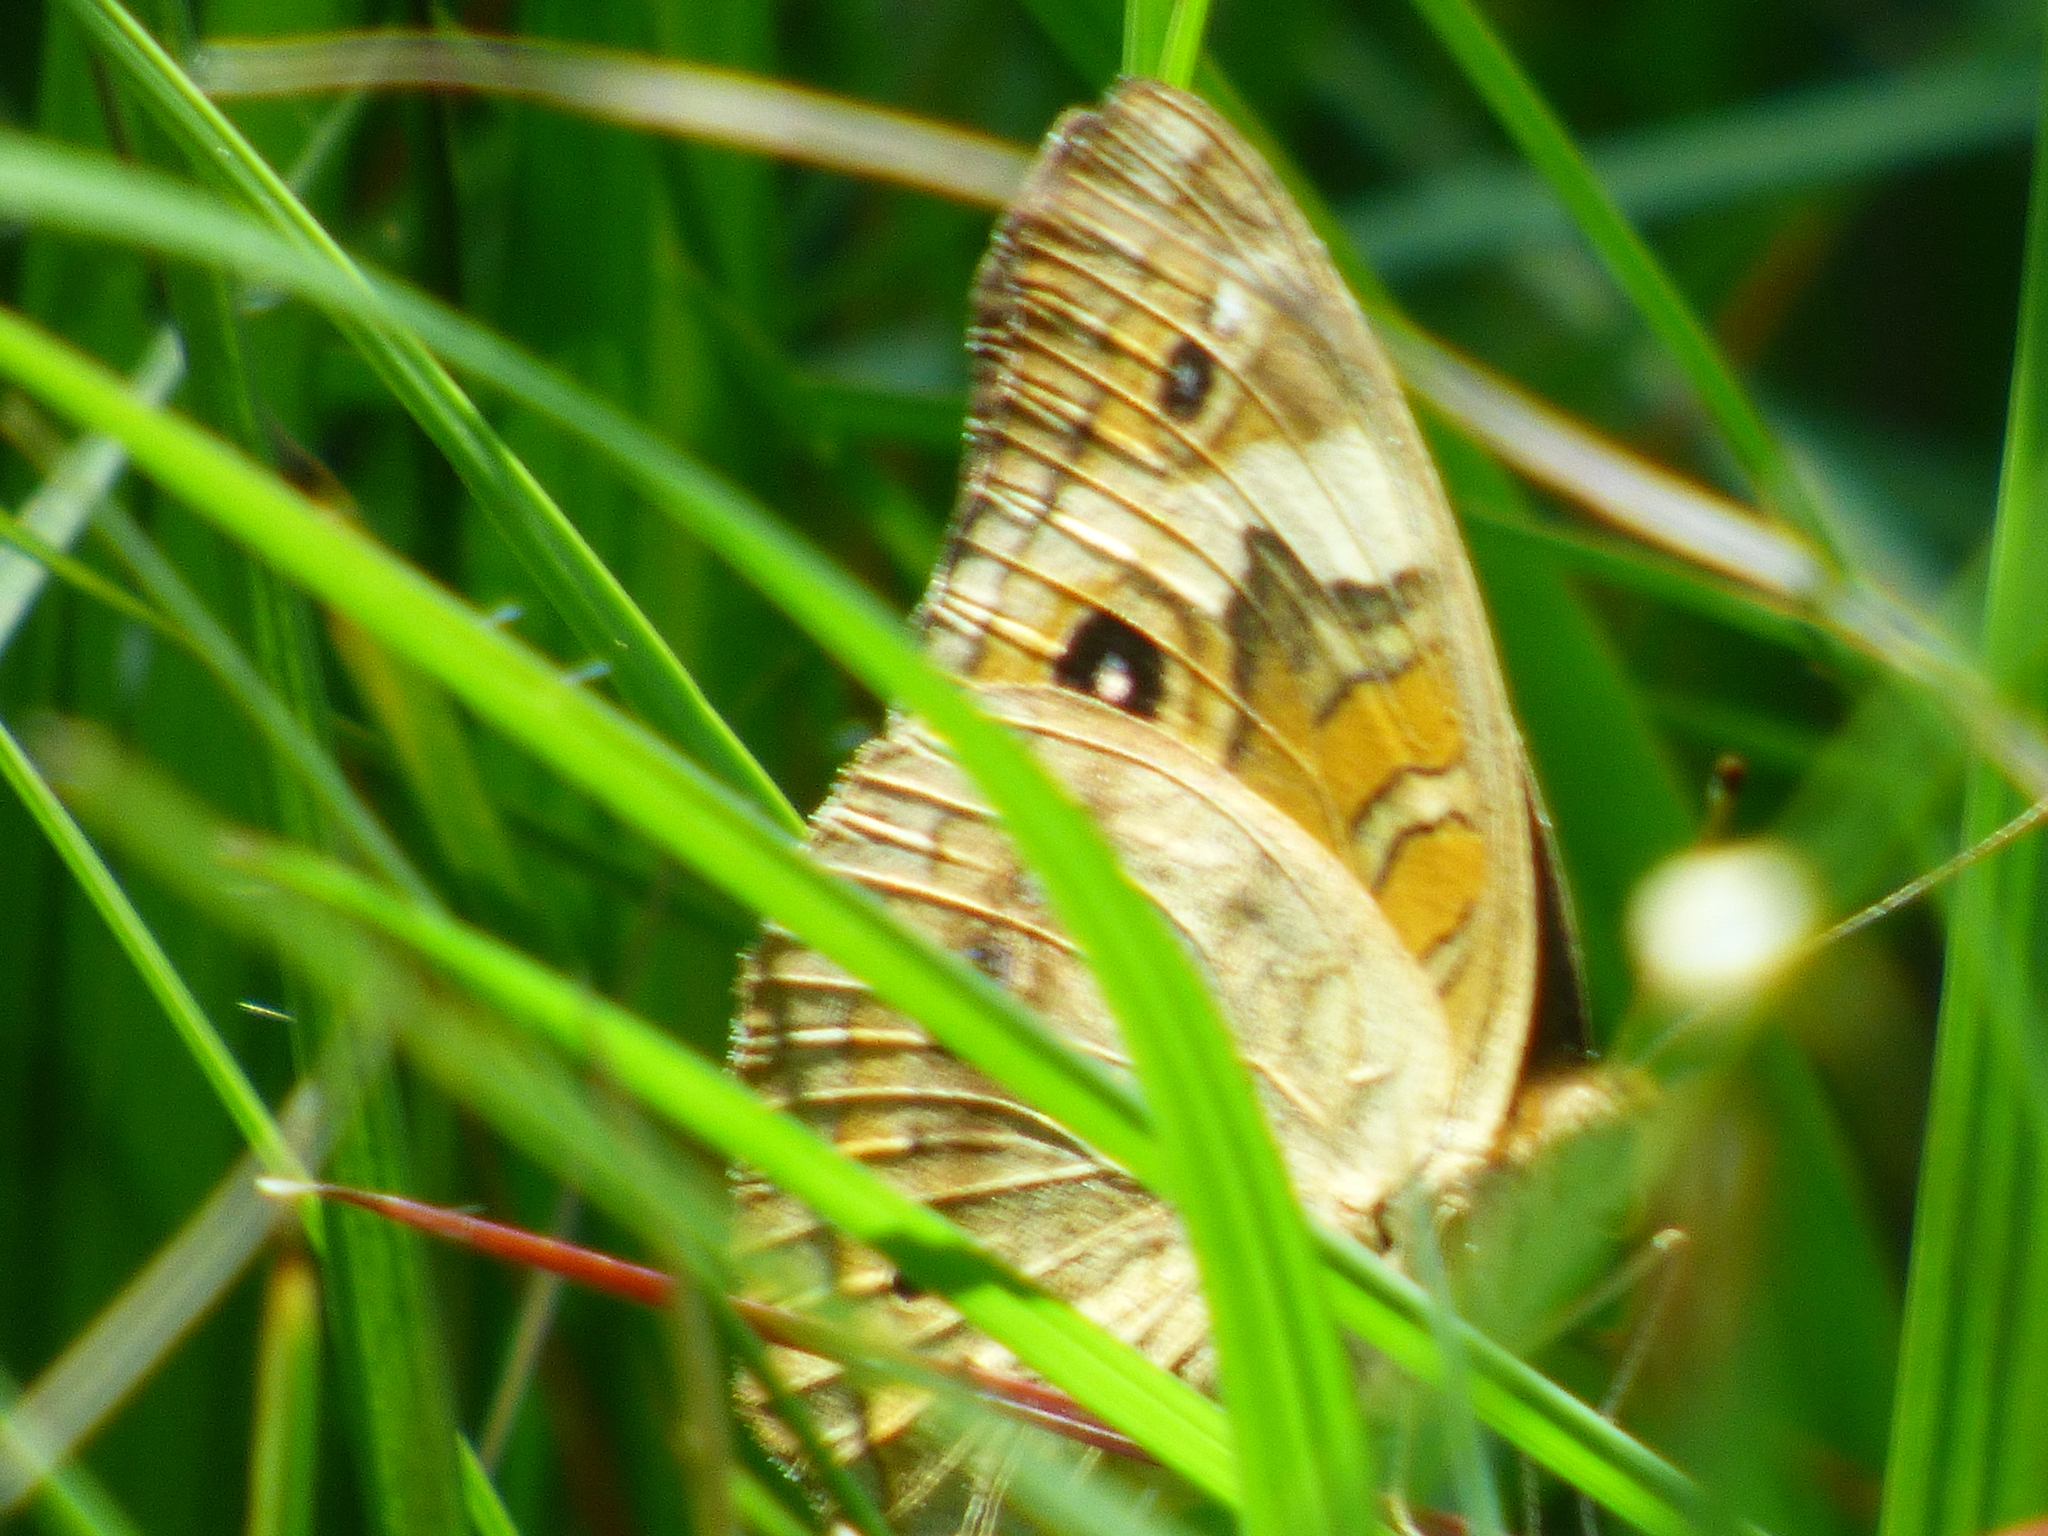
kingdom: Animalia
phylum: Arthropoda
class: Insecta
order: Lepidoptera
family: Nymphalidae
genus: Junonia
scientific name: Junonia coenia
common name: Common buckeye
